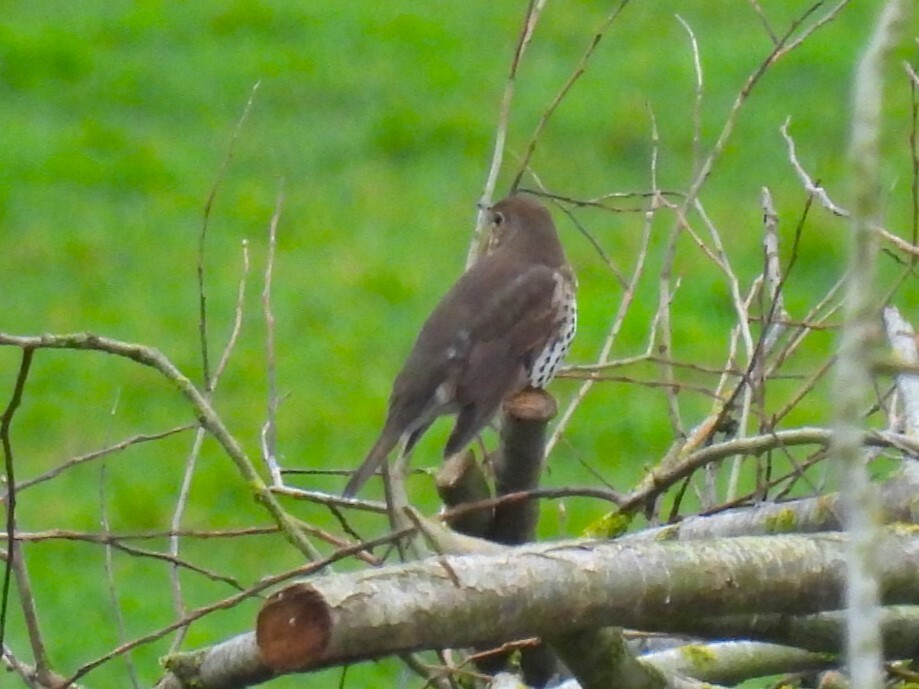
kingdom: Animalia
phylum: Chordata
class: Aves
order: Passeriformes
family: Turdidae
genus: Turdus
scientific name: Turdus philomelos
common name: Song thrush
